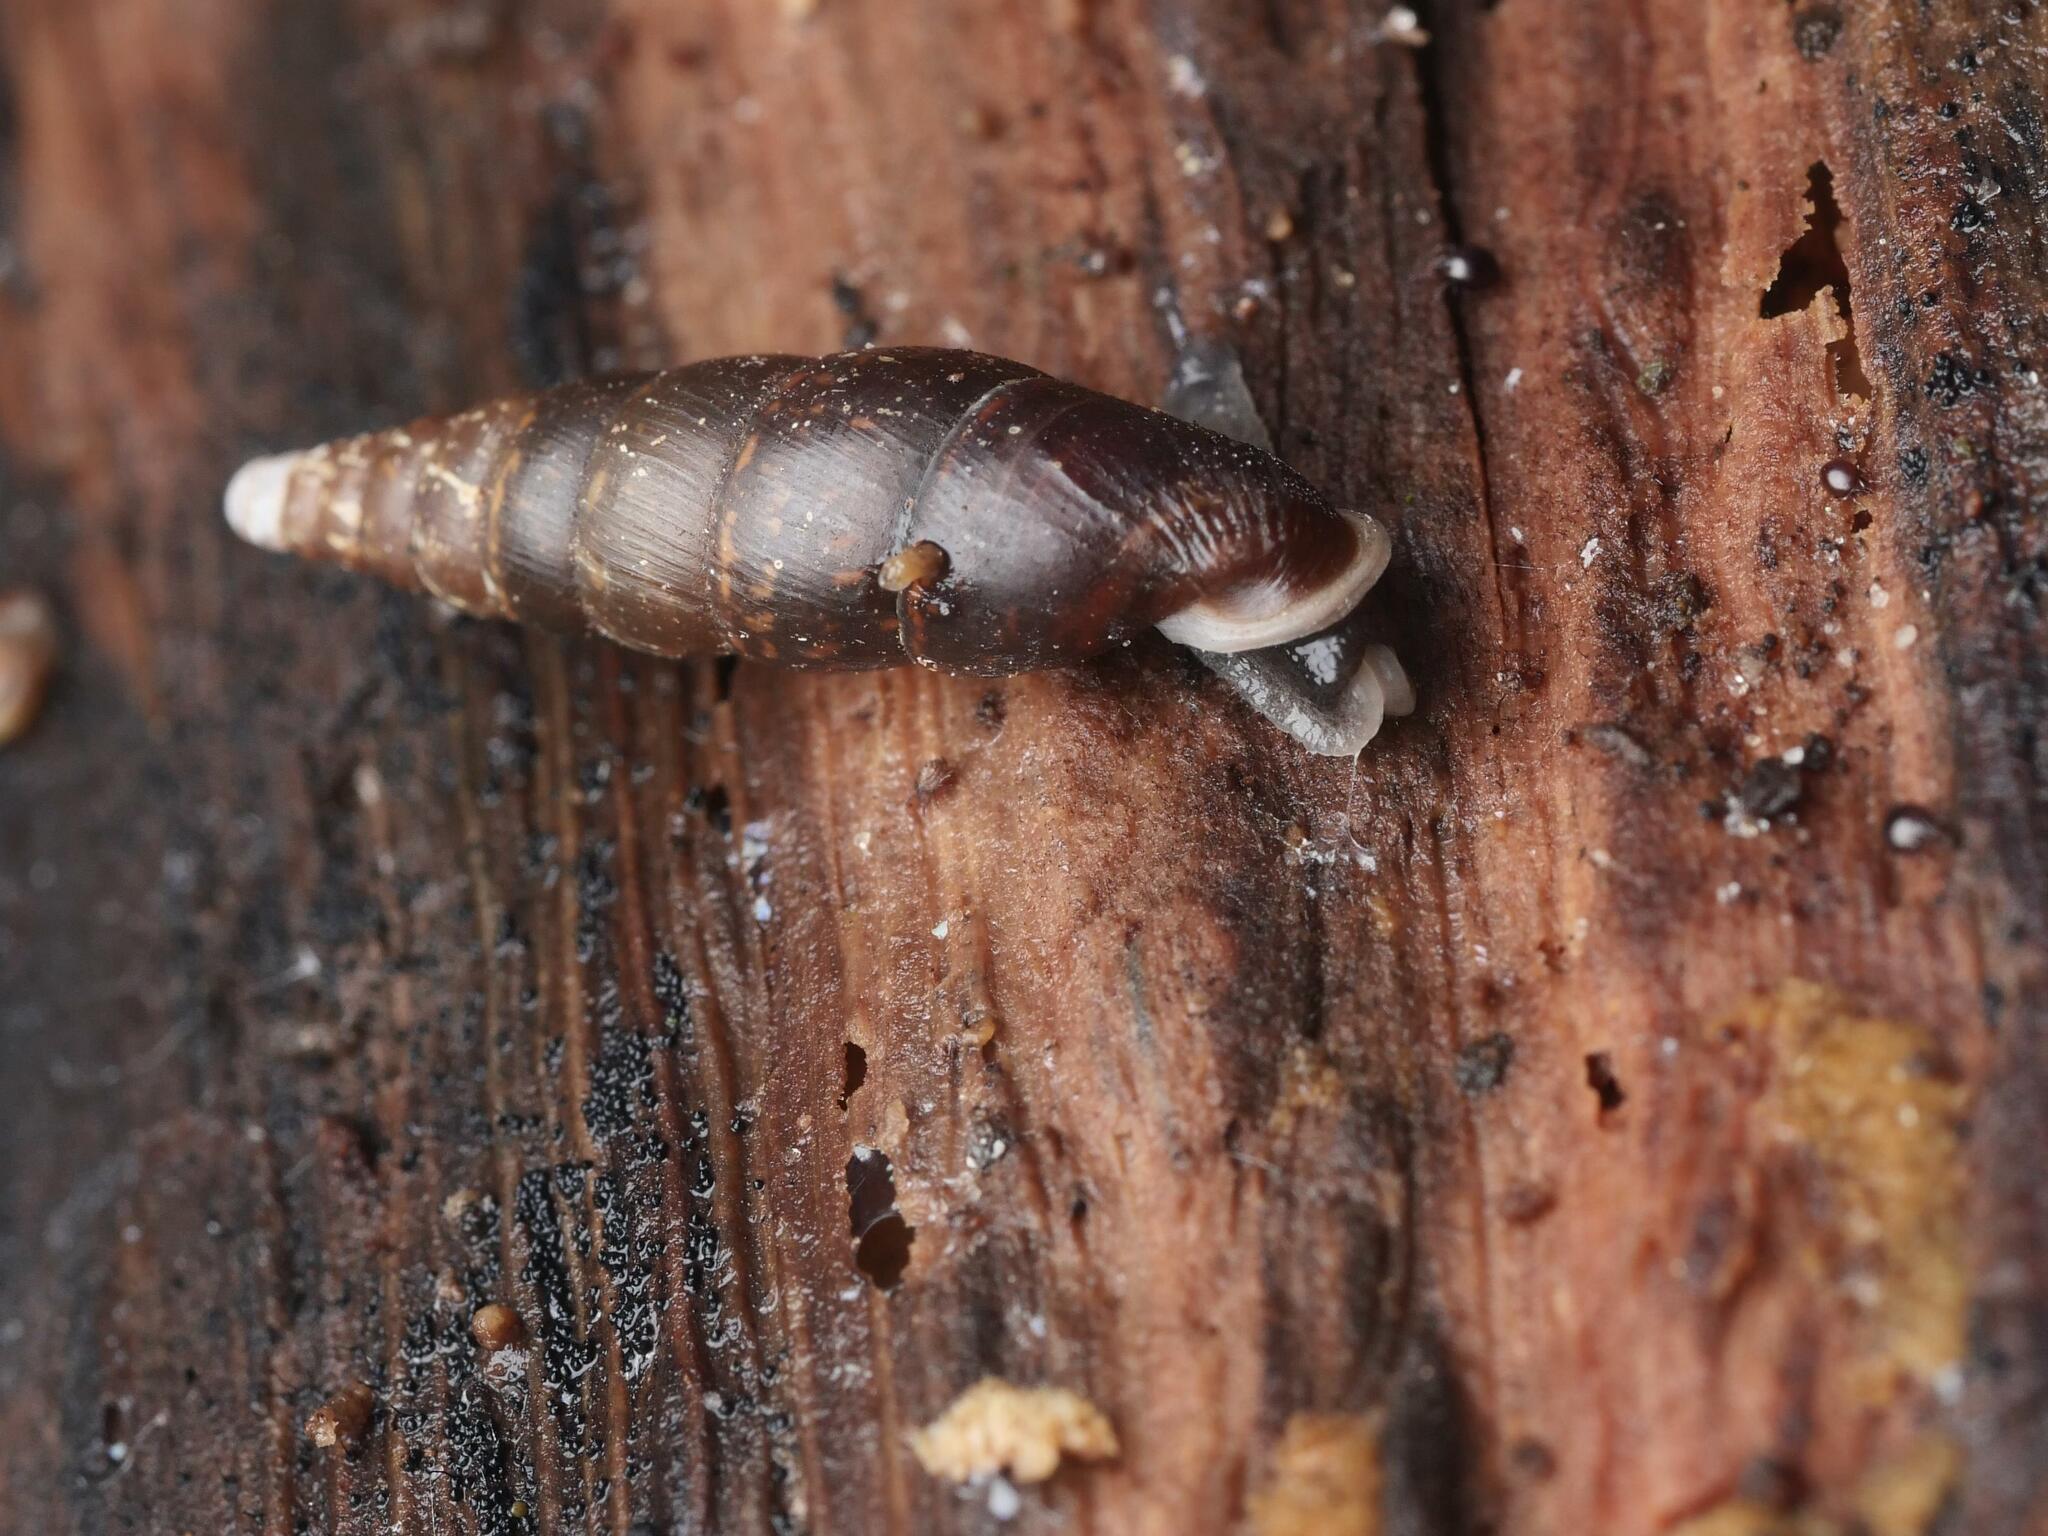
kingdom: Animalia
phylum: Mollusca
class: Gastropoda
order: Stylommatophora
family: Clausiliidae
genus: Cochlodina
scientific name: Cochlodina laminata
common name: Plaited door snail
